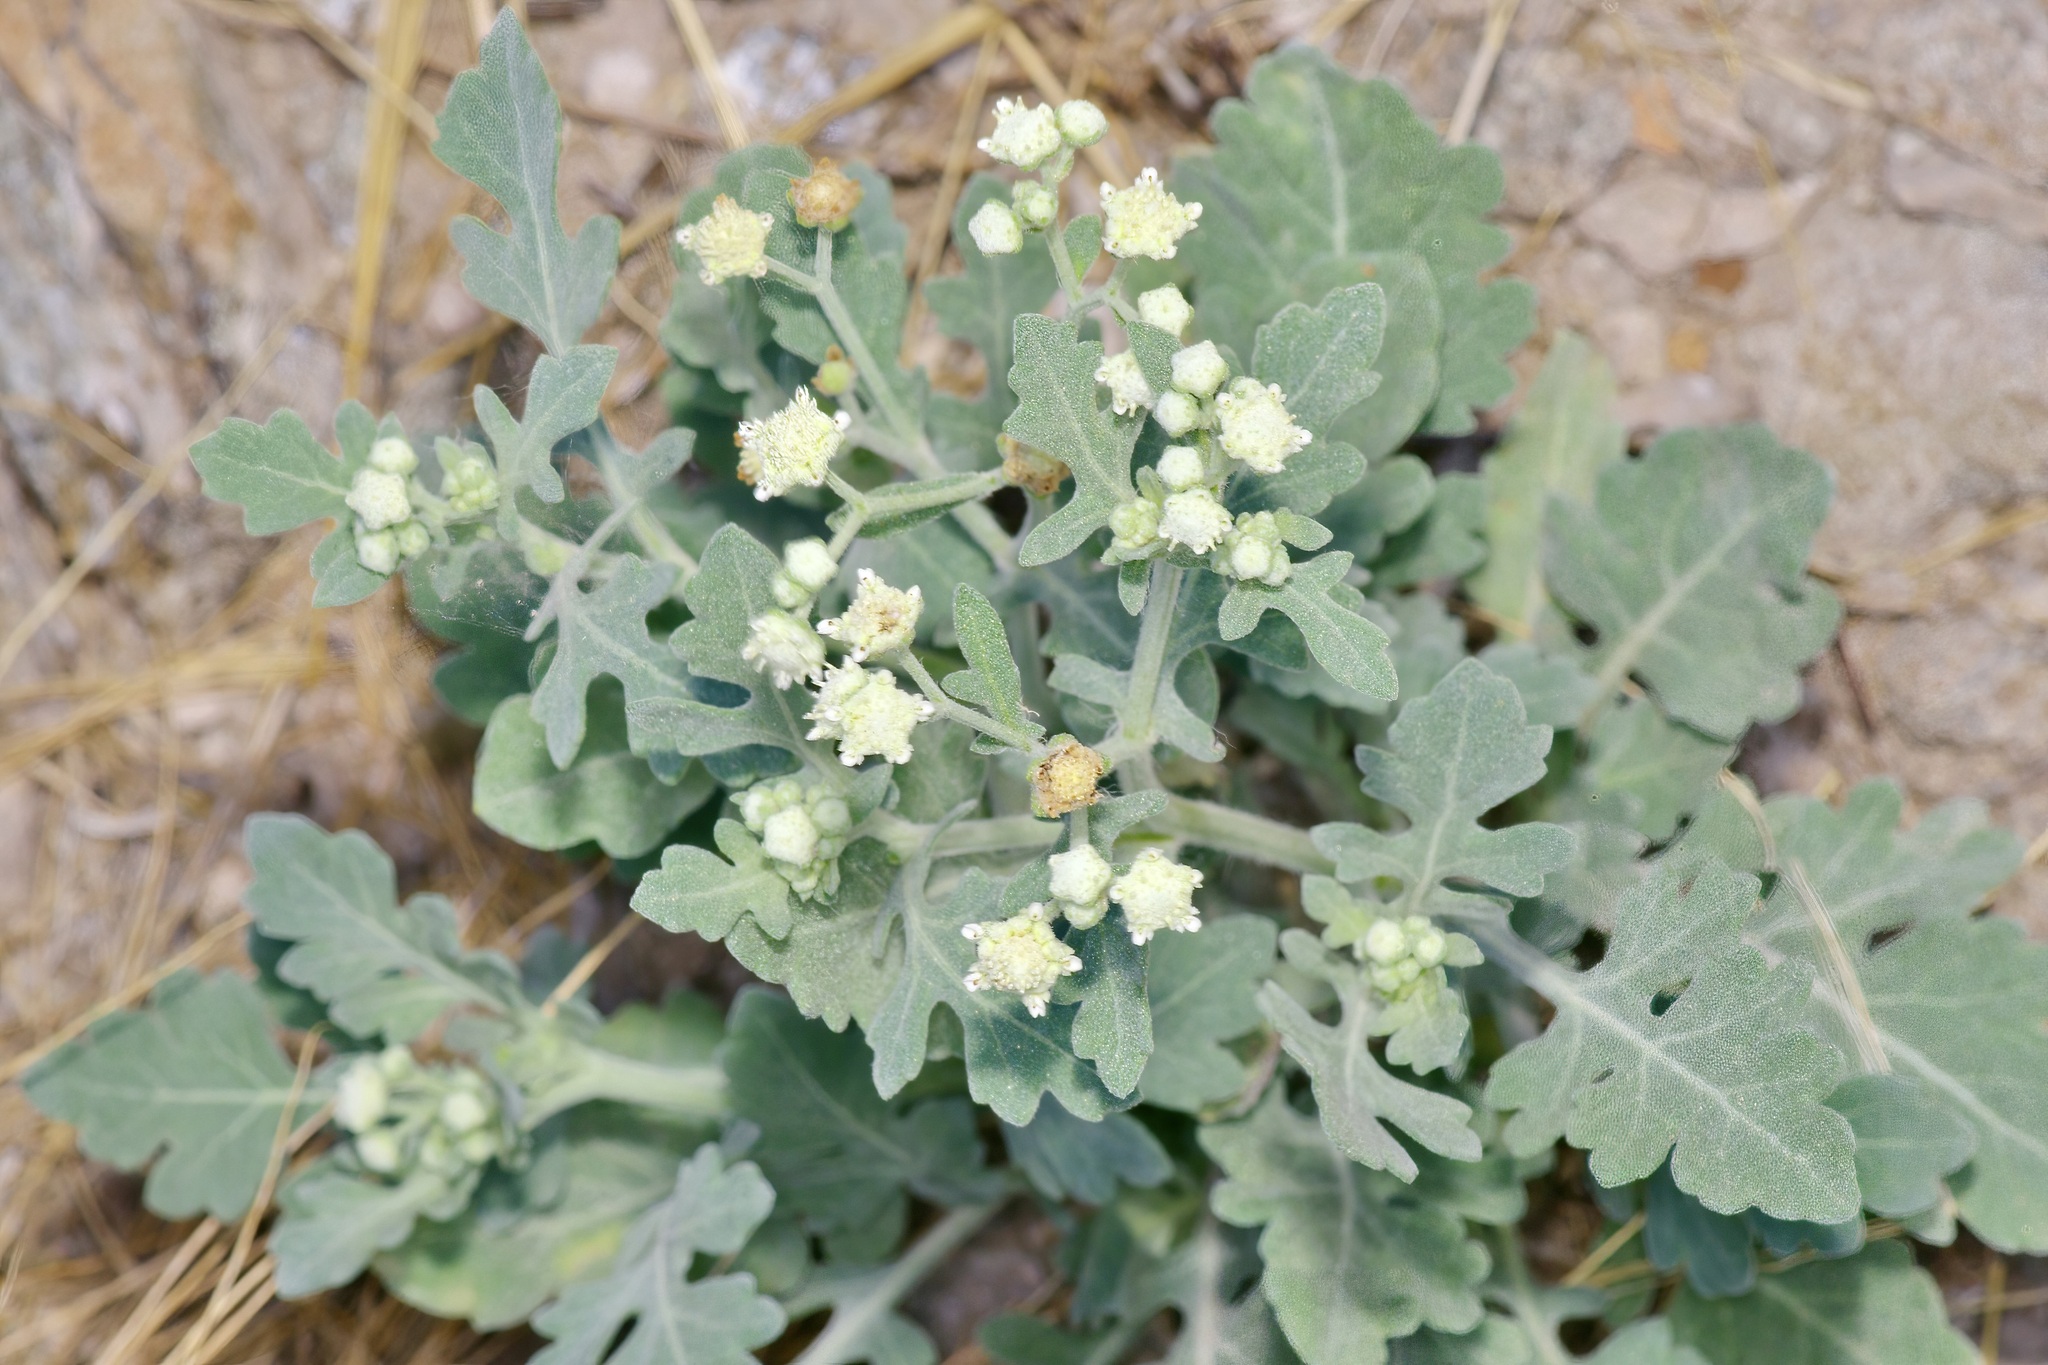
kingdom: Plantae
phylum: Tracheophyta
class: Magnoliopsida
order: Asterales
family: Asteraceae
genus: Parthenium
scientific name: Parthenium confertum
